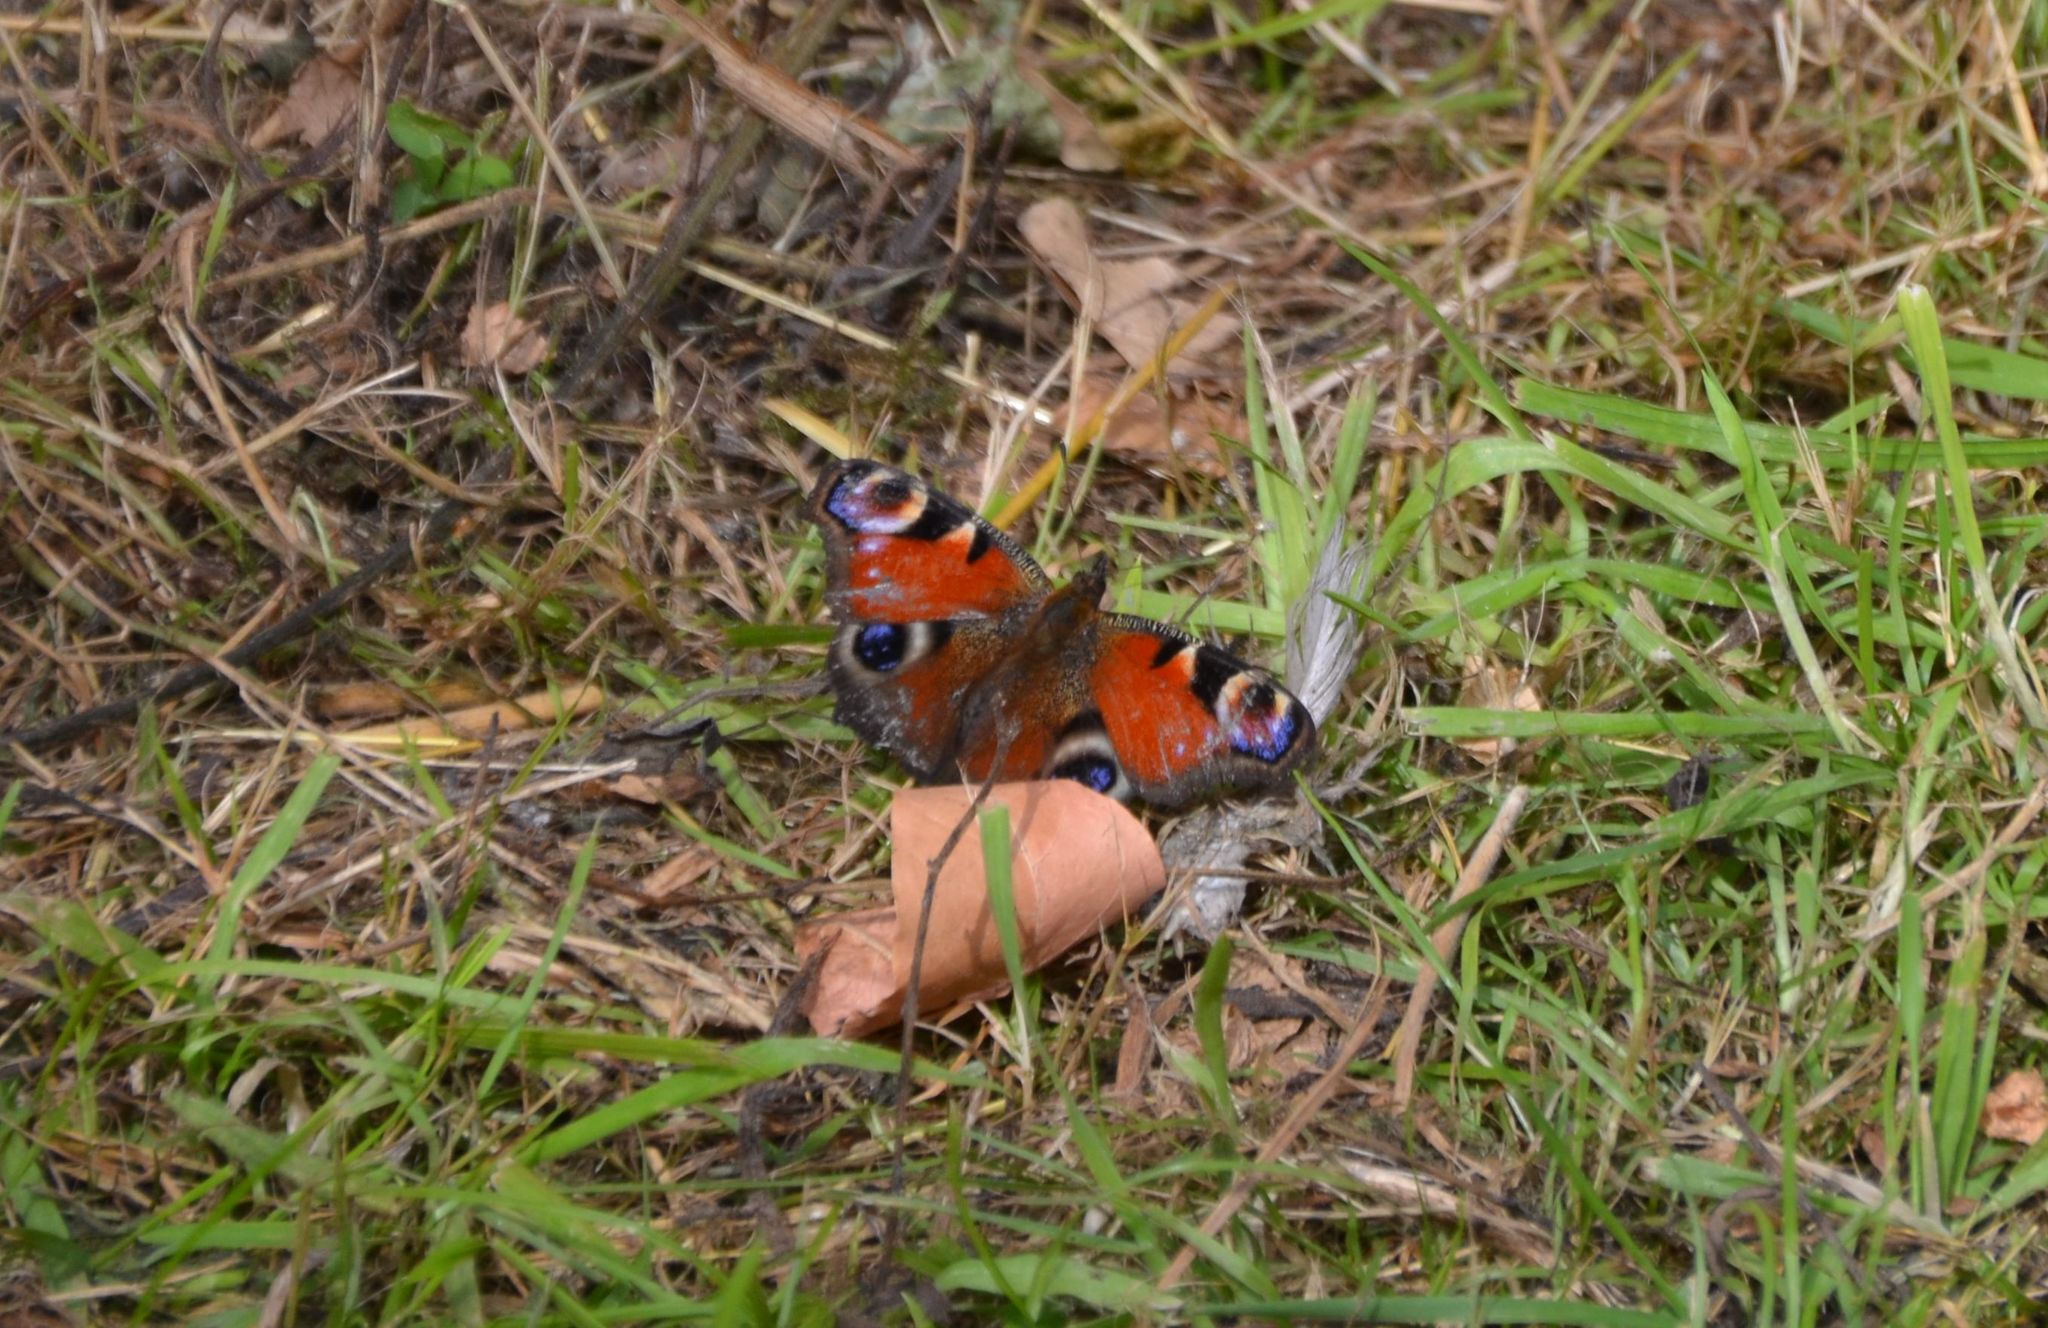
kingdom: Animalia
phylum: Arthropoda
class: Insecta
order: Lepidoptera
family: Nymphalidae
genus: Aglais
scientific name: Aglais io
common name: Peacock
